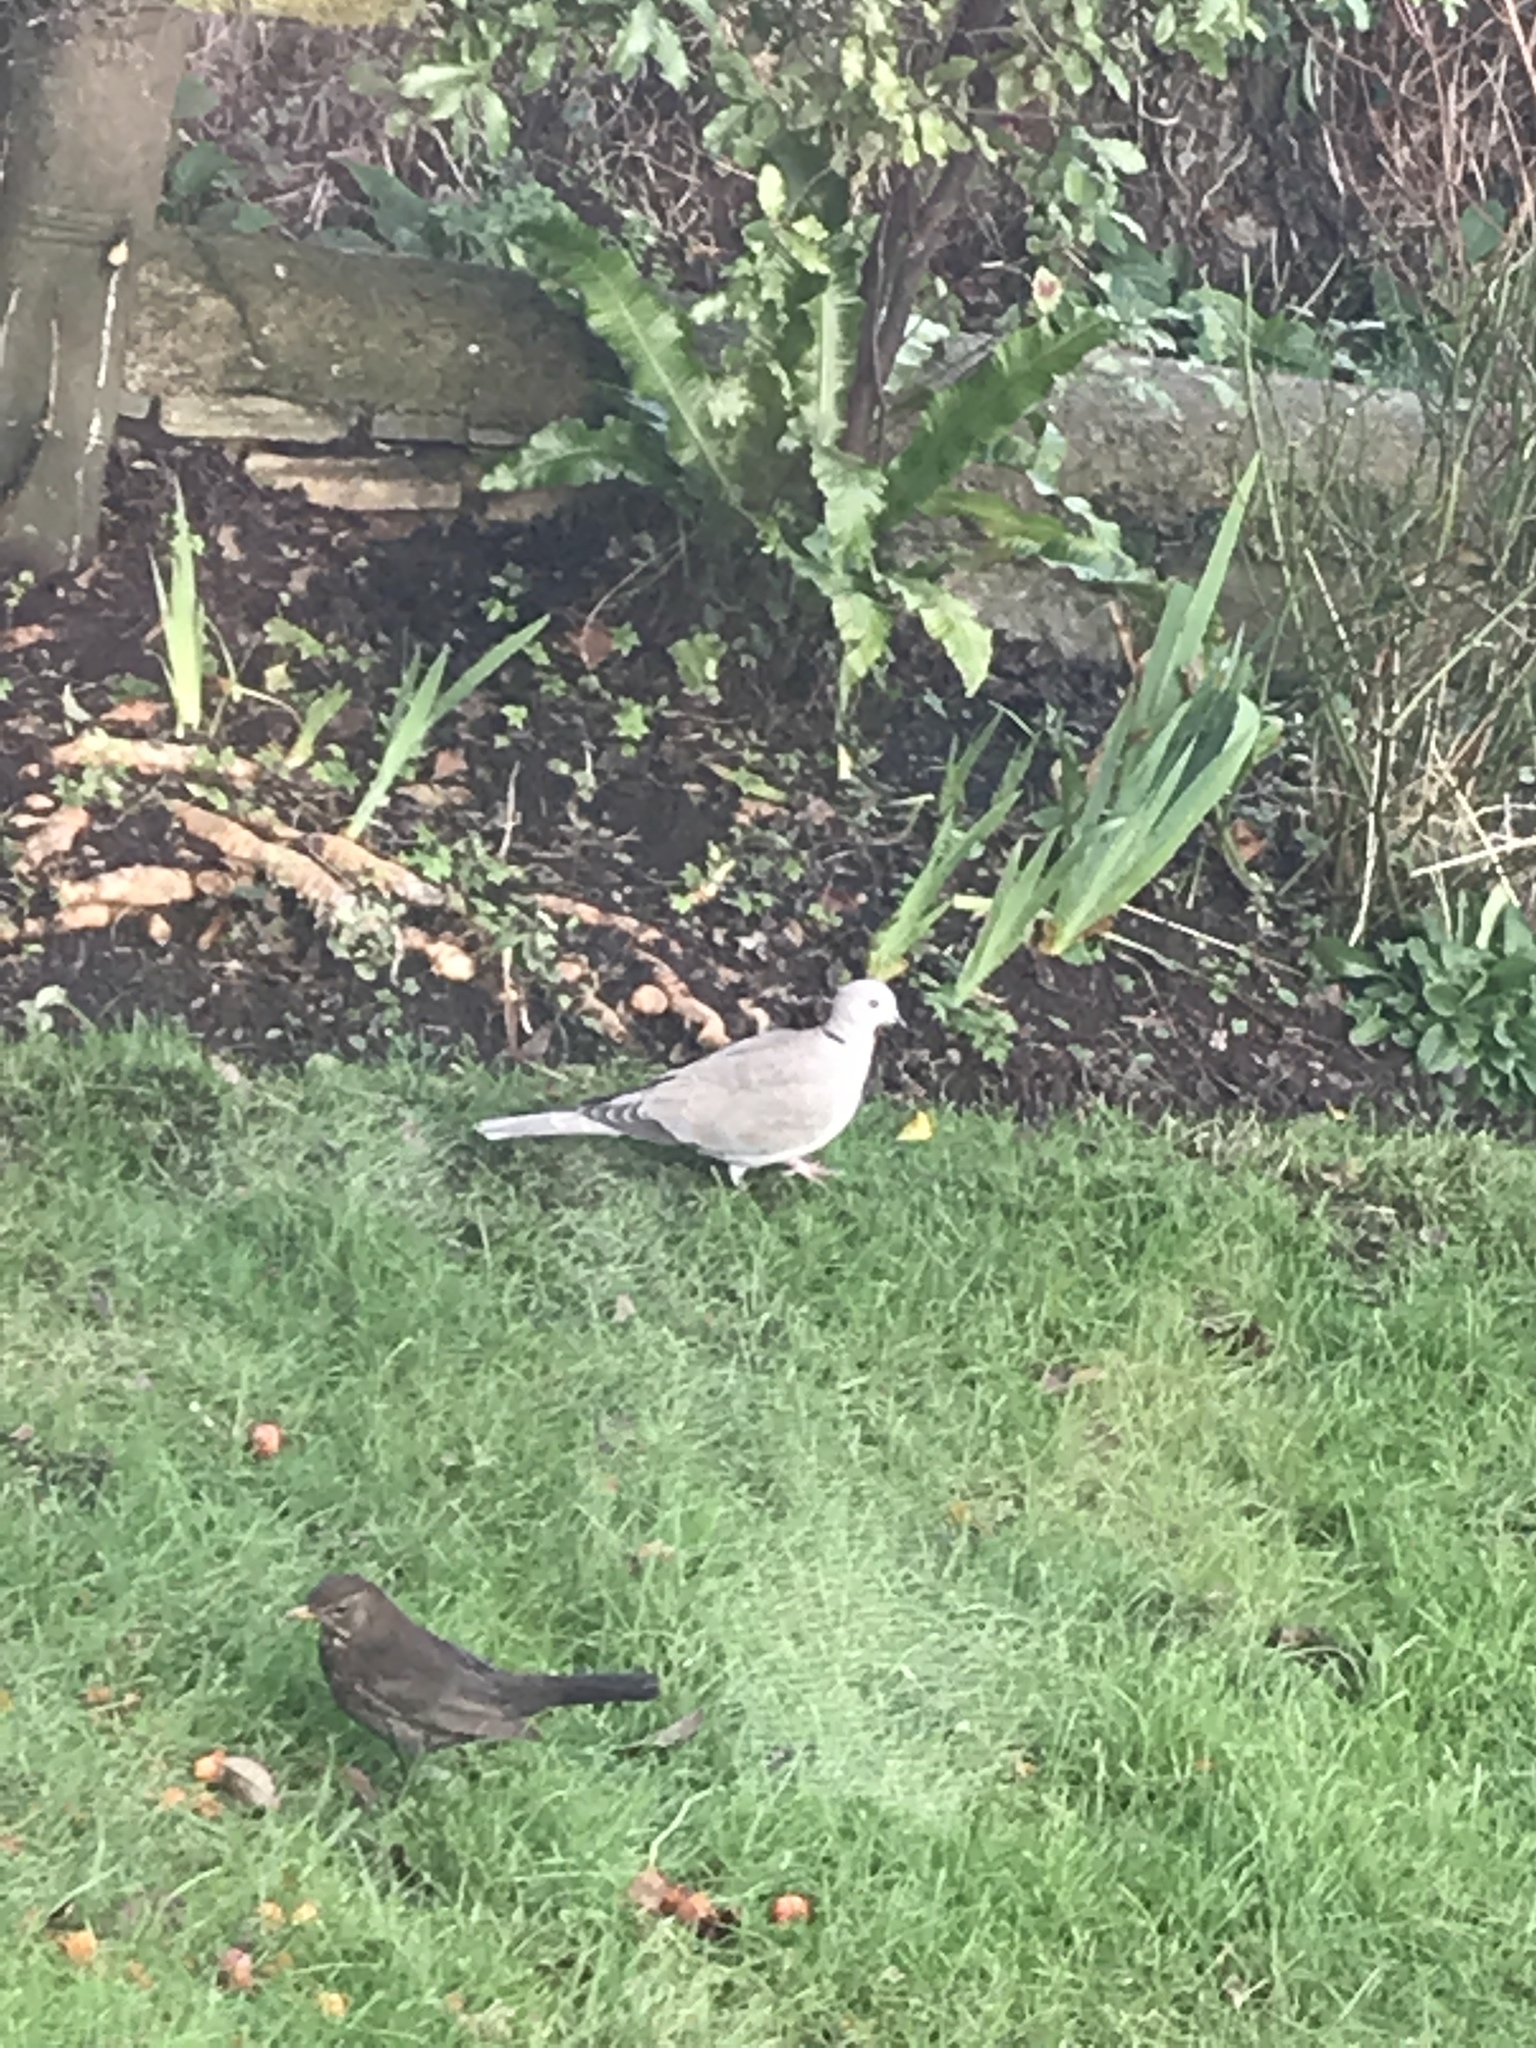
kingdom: Animalia
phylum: Chordata
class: Aves
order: Columbiformes
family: Columbidae
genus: Streptopelia
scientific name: Streptopelia decaocto
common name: Eurasian collared dove
